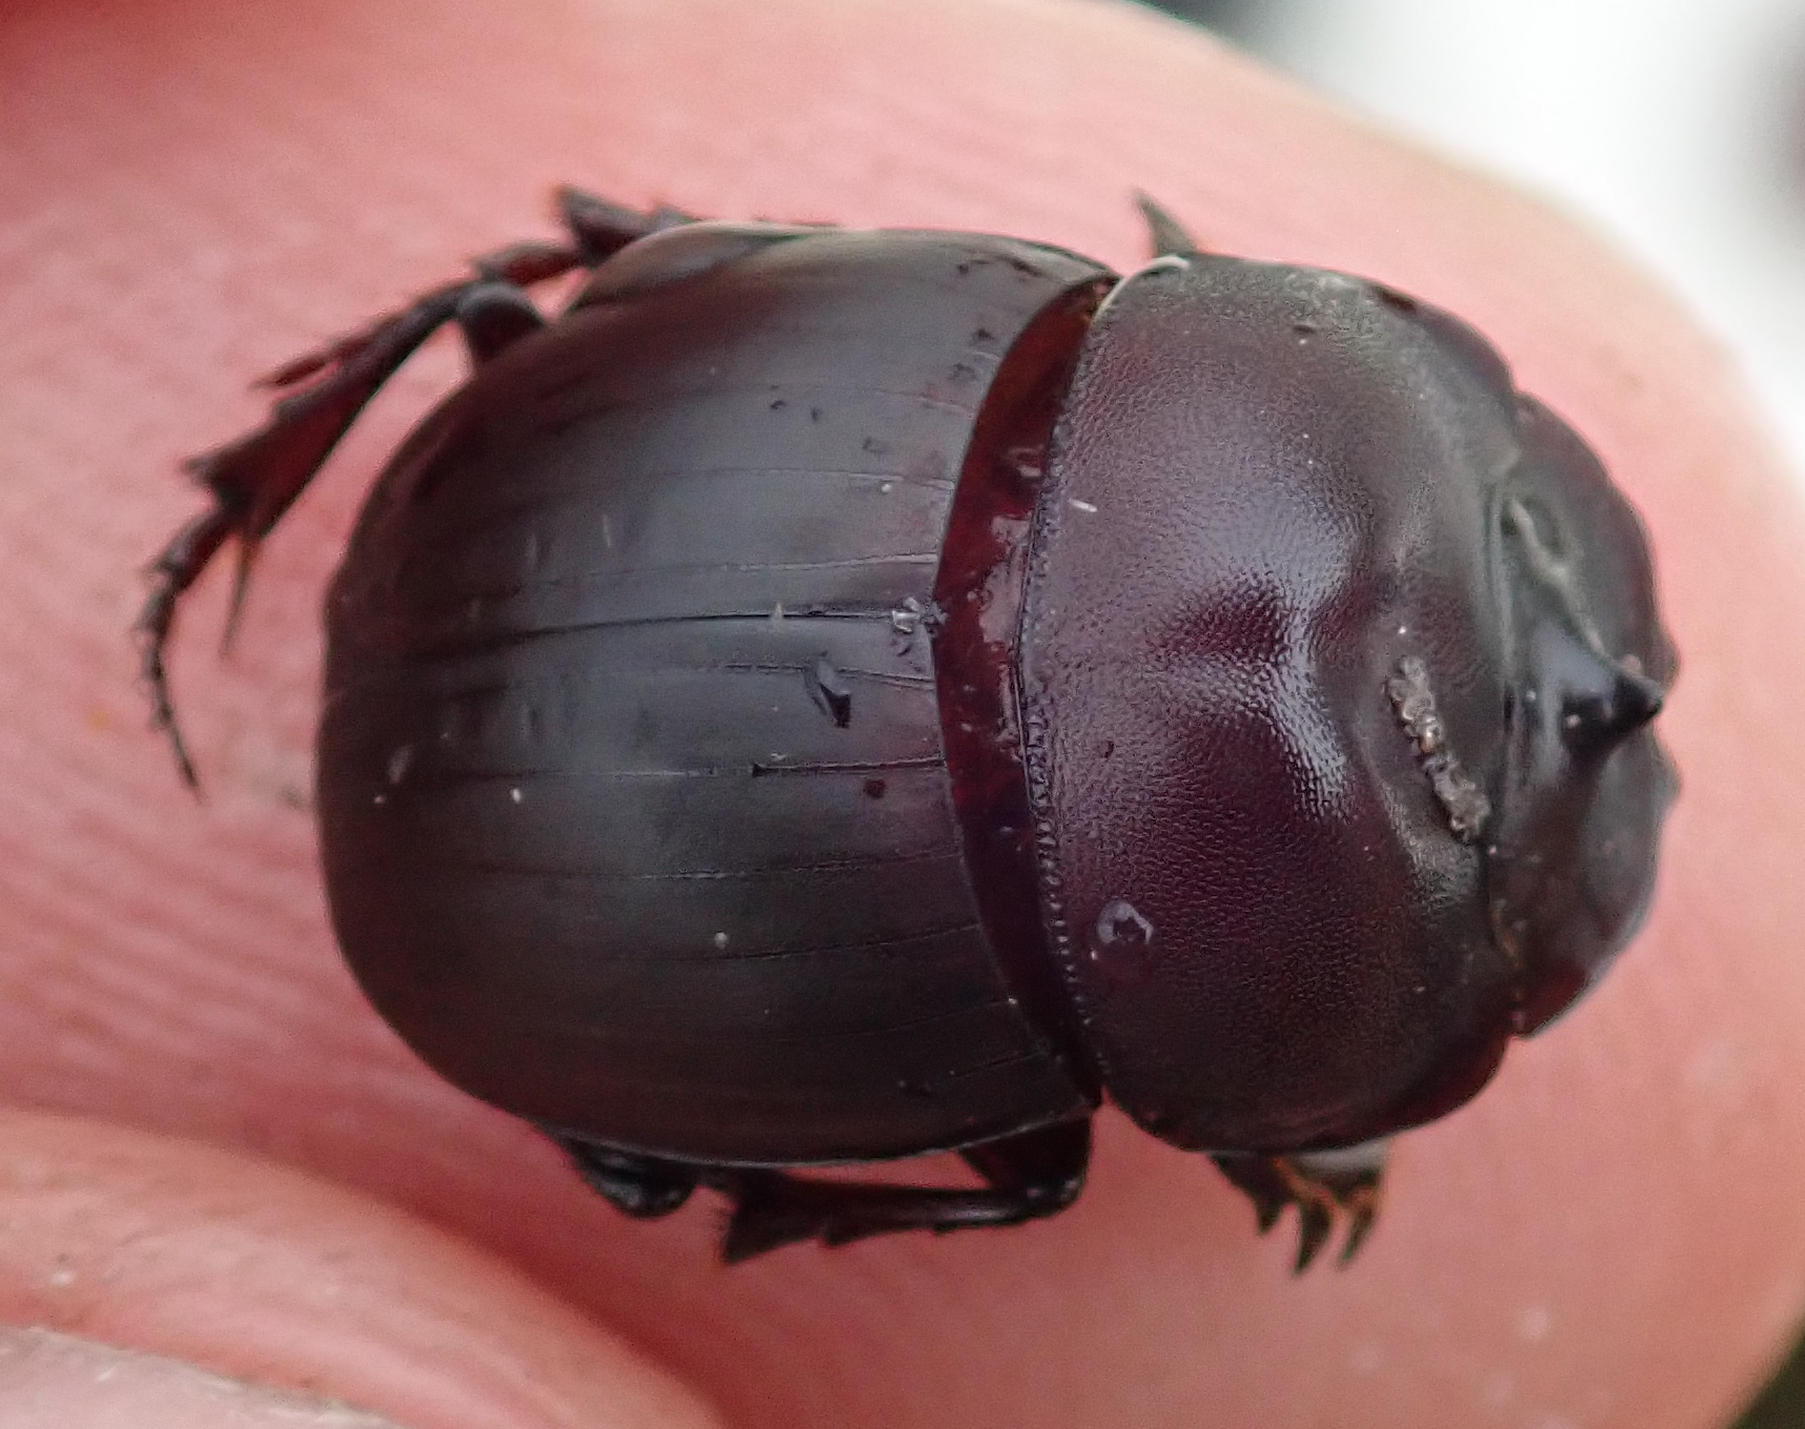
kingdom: Animalia
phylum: Arthropoda
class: Insecta
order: Coleoptera
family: Scarabaeidae
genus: Metacatharsius
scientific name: Metacatharsius opacus
